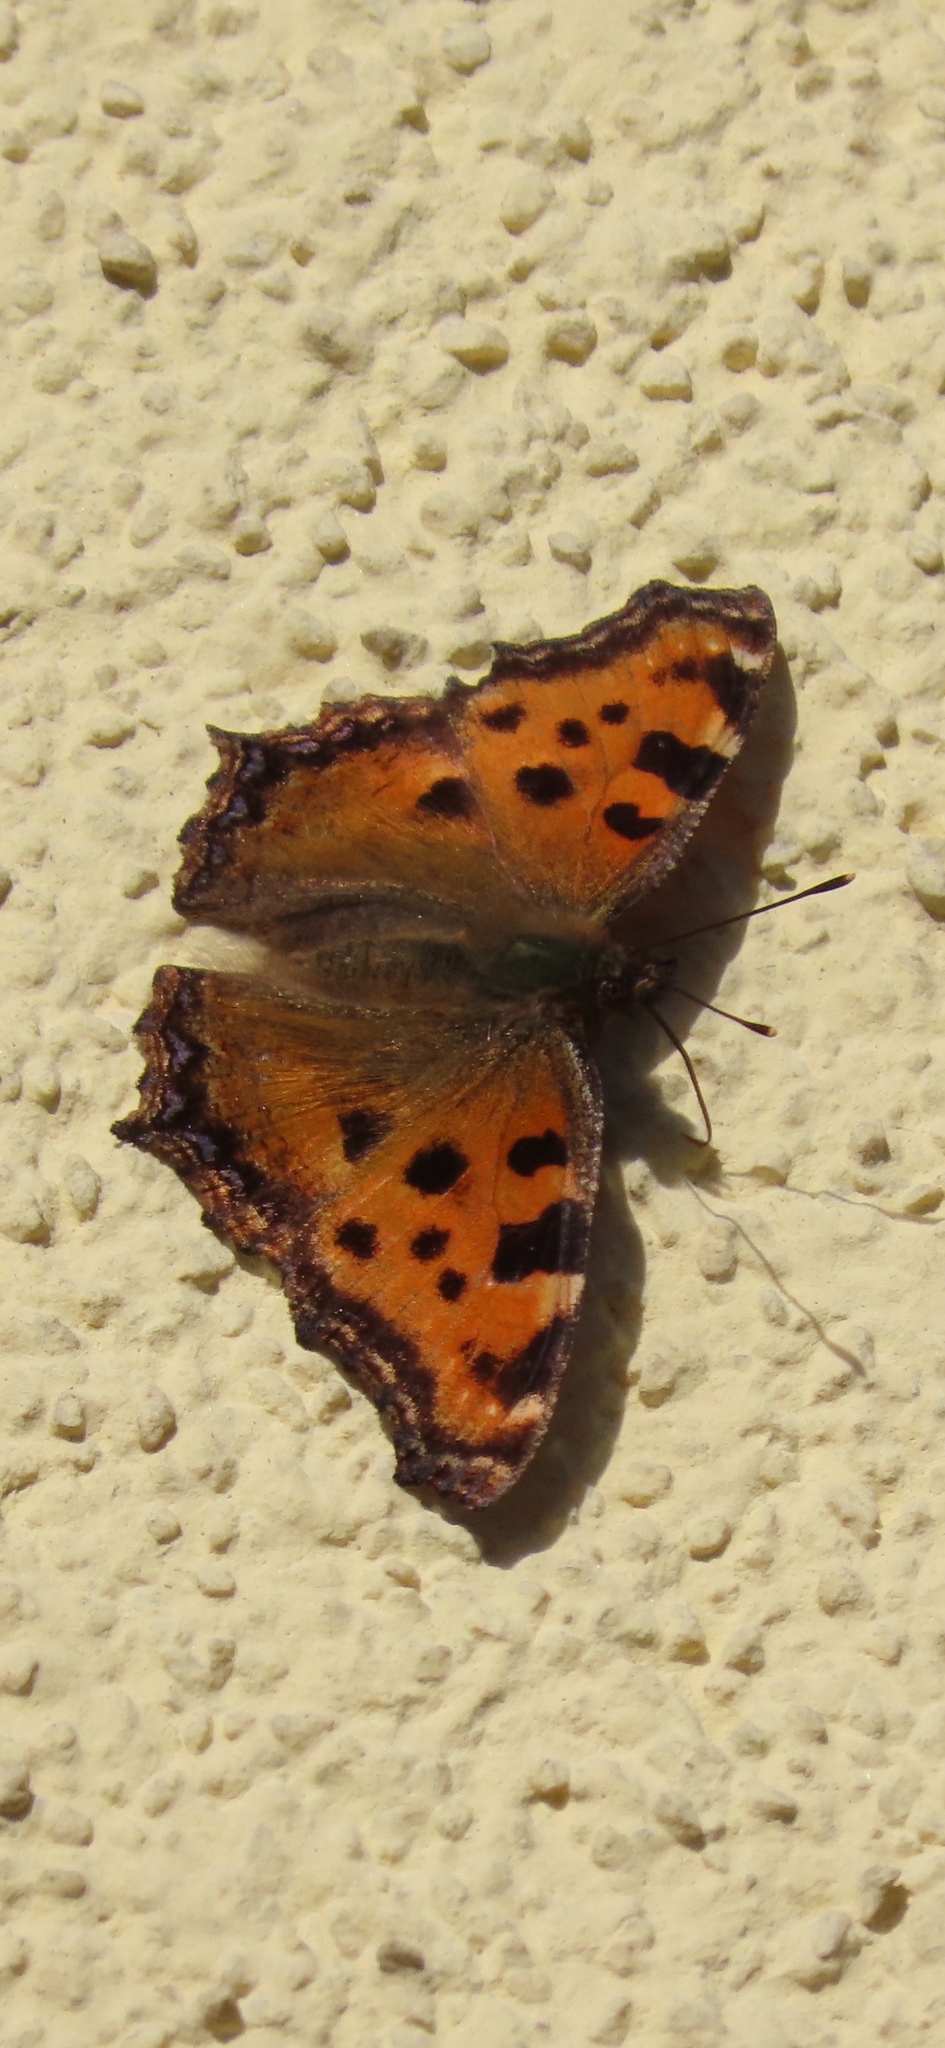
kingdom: Animalia
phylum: Arthropoda
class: Insecta
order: Lepidoptera
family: Nymphalidae
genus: Nymphalis
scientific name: Nymphalis polychloros
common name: Large tortoiseshell
